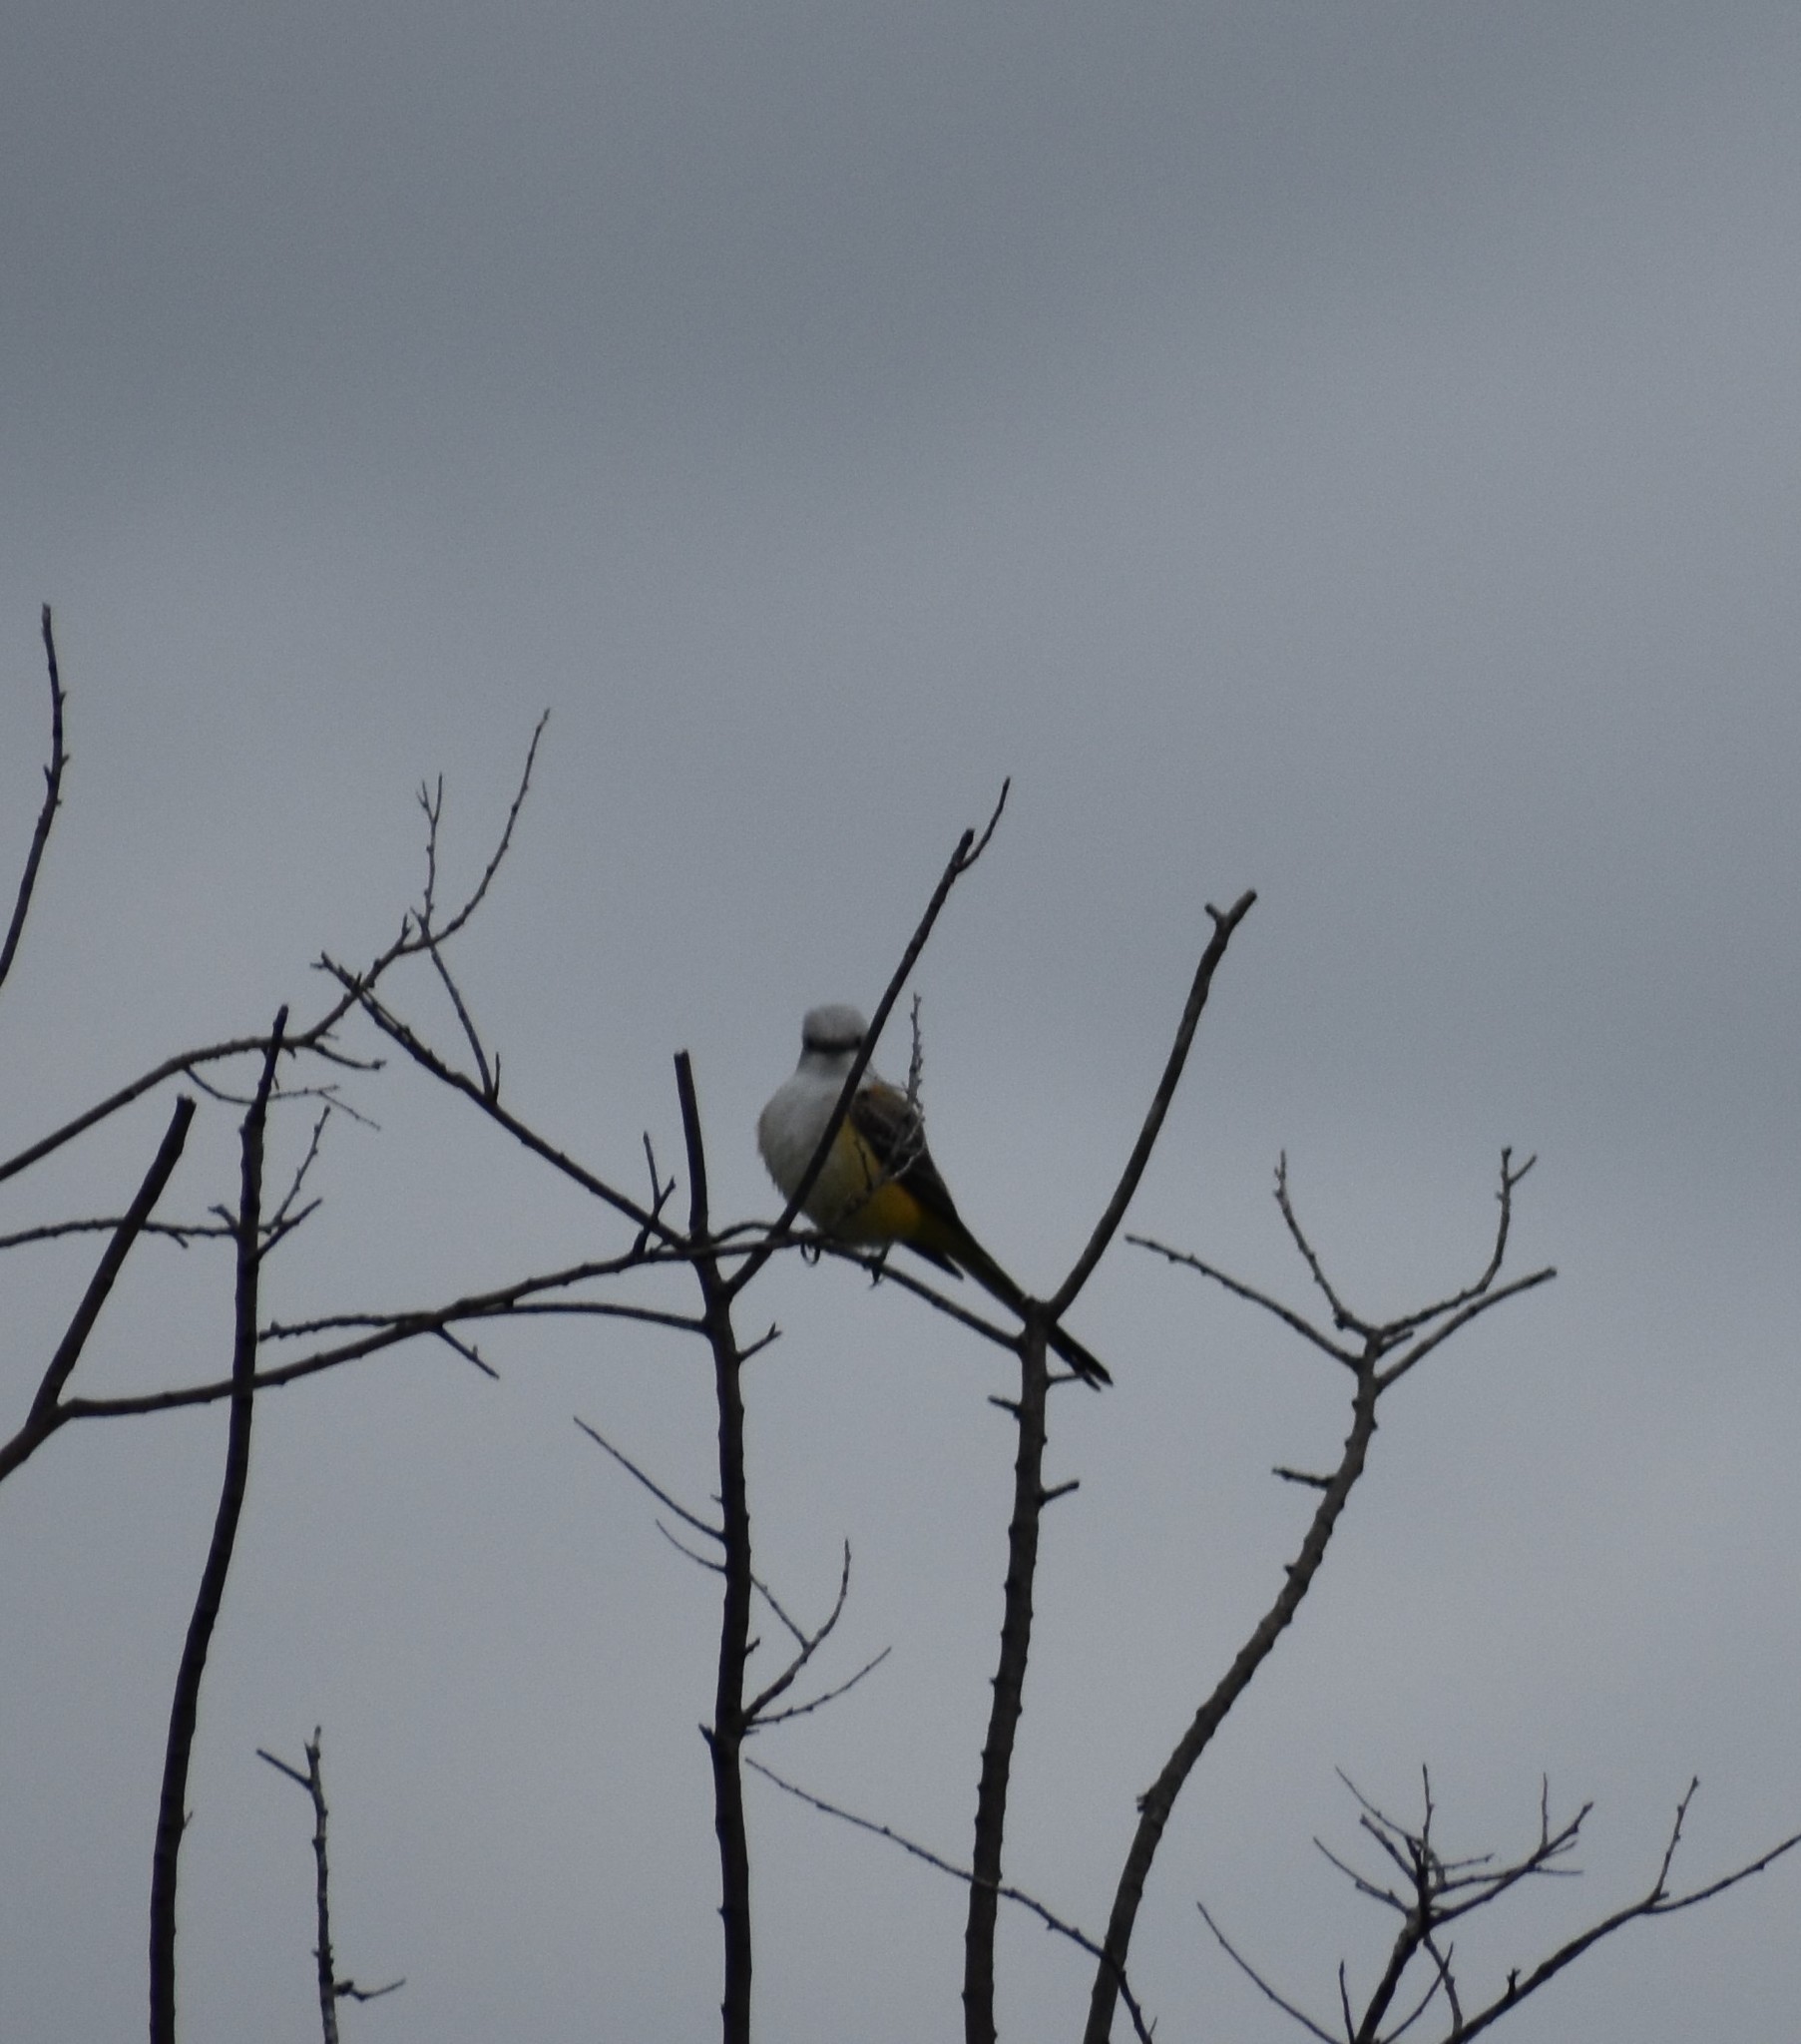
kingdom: Animalia
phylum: Chordata
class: Aves
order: Passeriformes
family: Tyrannidae
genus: Tyrannus
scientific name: Tyrannus forficatus
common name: Scissor-tailed flycatcher
